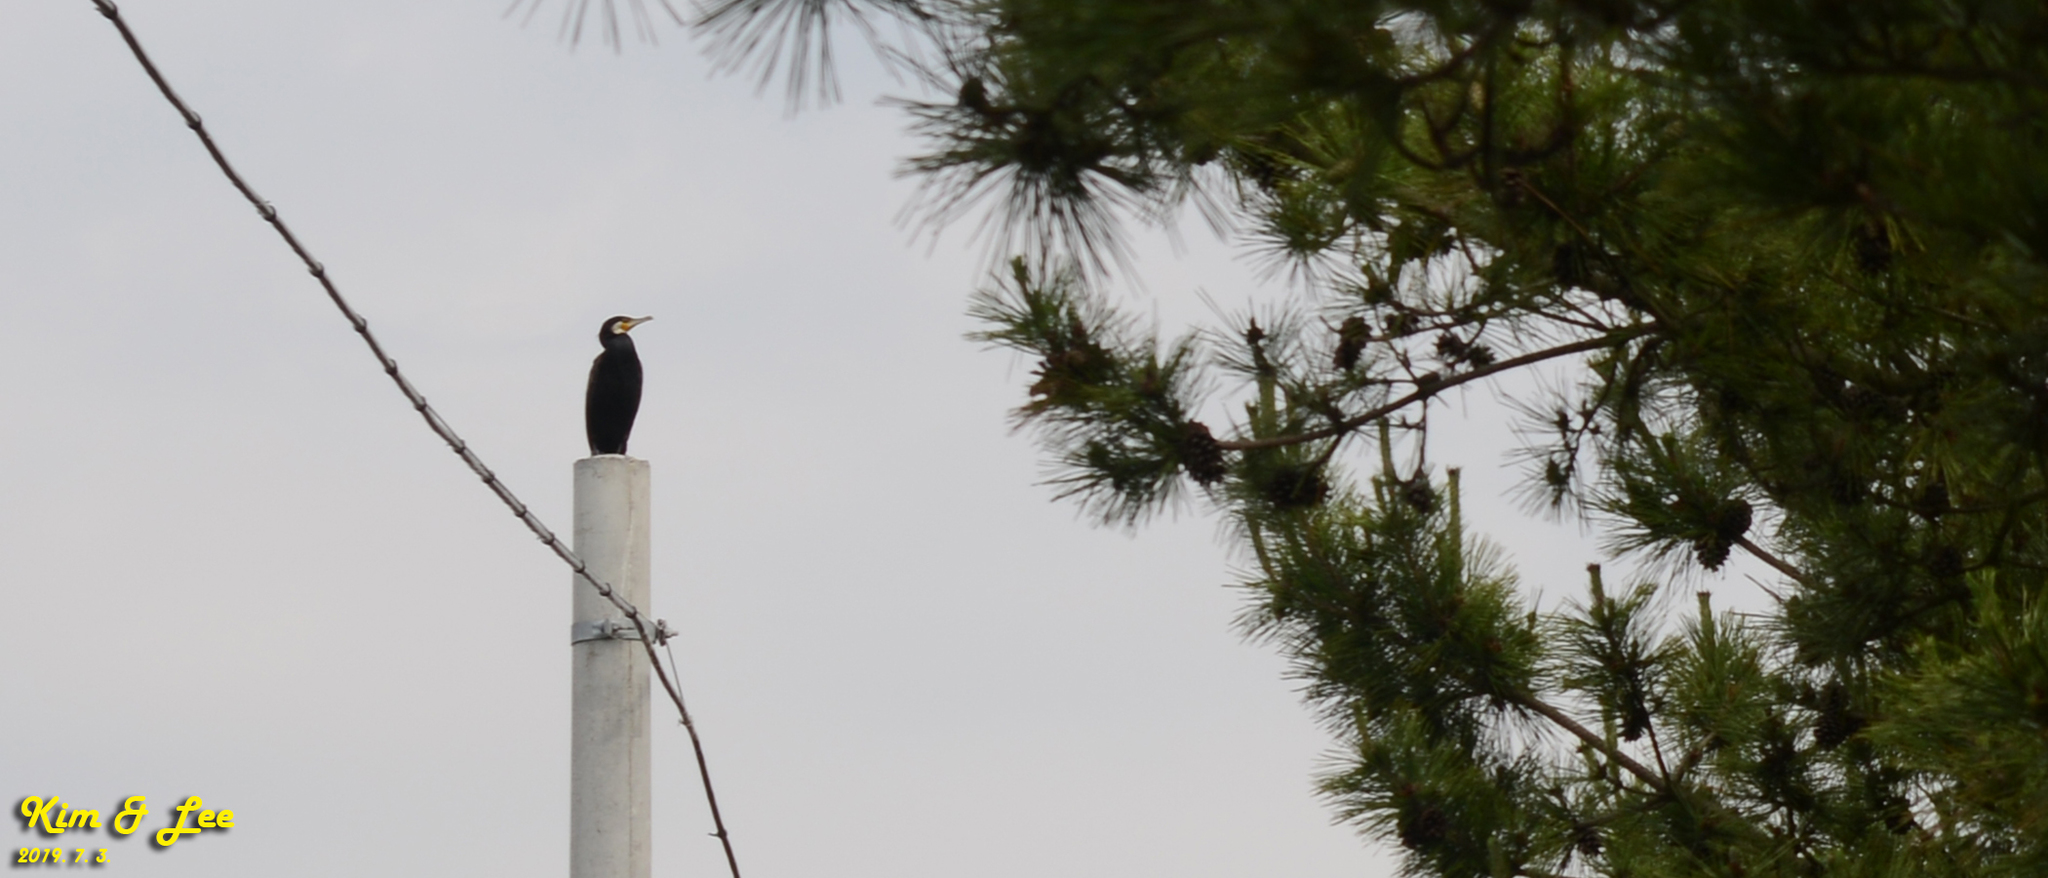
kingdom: Animalia
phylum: Chordata
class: Aves
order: Suliformes
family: Phalacrocoracidae
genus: Phalacrocorax
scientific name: Phalacrocorax capillatus
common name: Japanese cormorant
